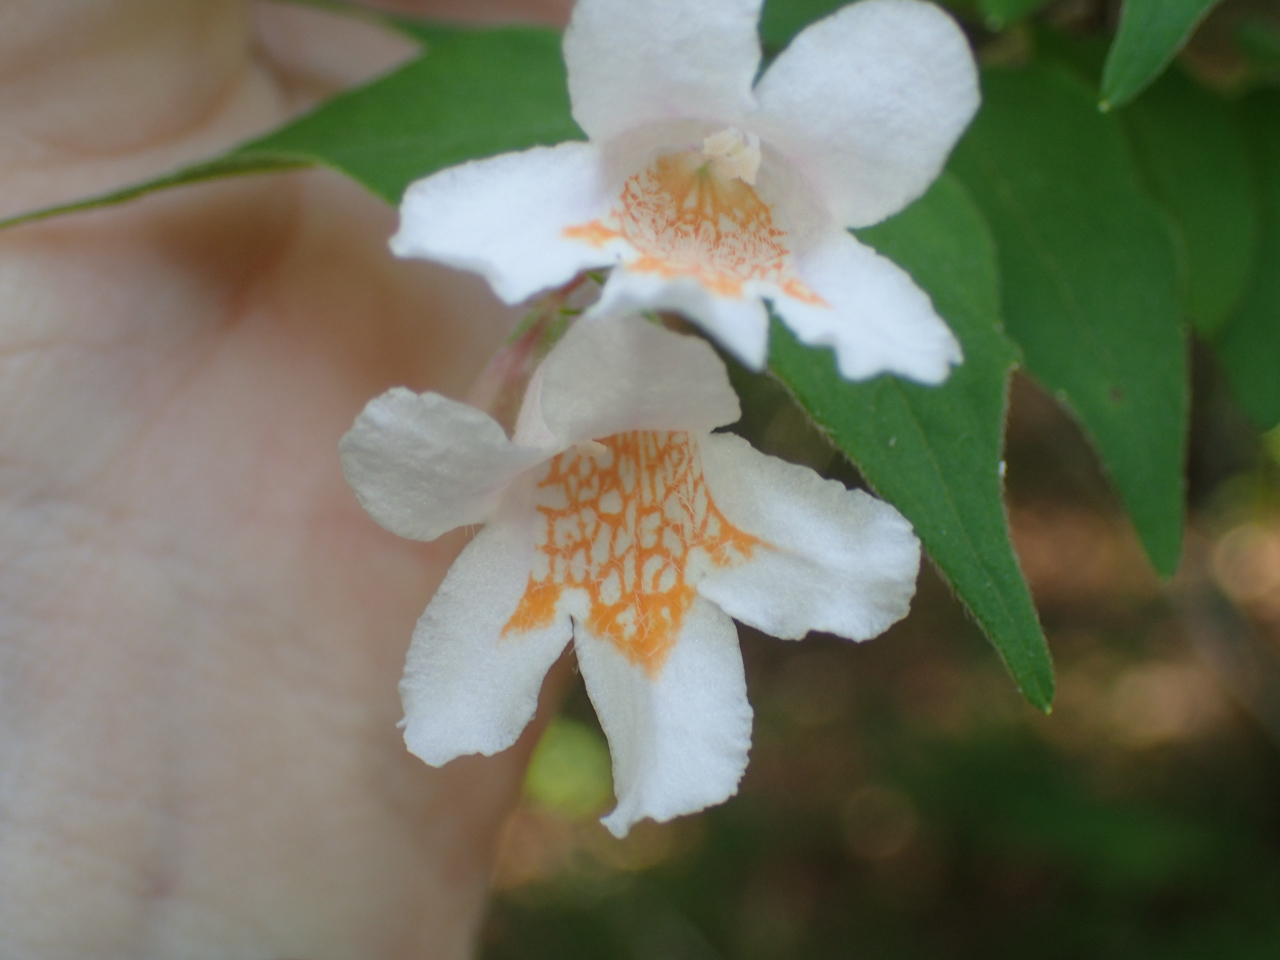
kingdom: Plantae
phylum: Tracheophyta
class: Magnoliopsida
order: Dipsacales
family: Caprifoliaceae
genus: Kolkwitzia
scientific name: Kolkwitzia amabilis
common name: Beautybush
